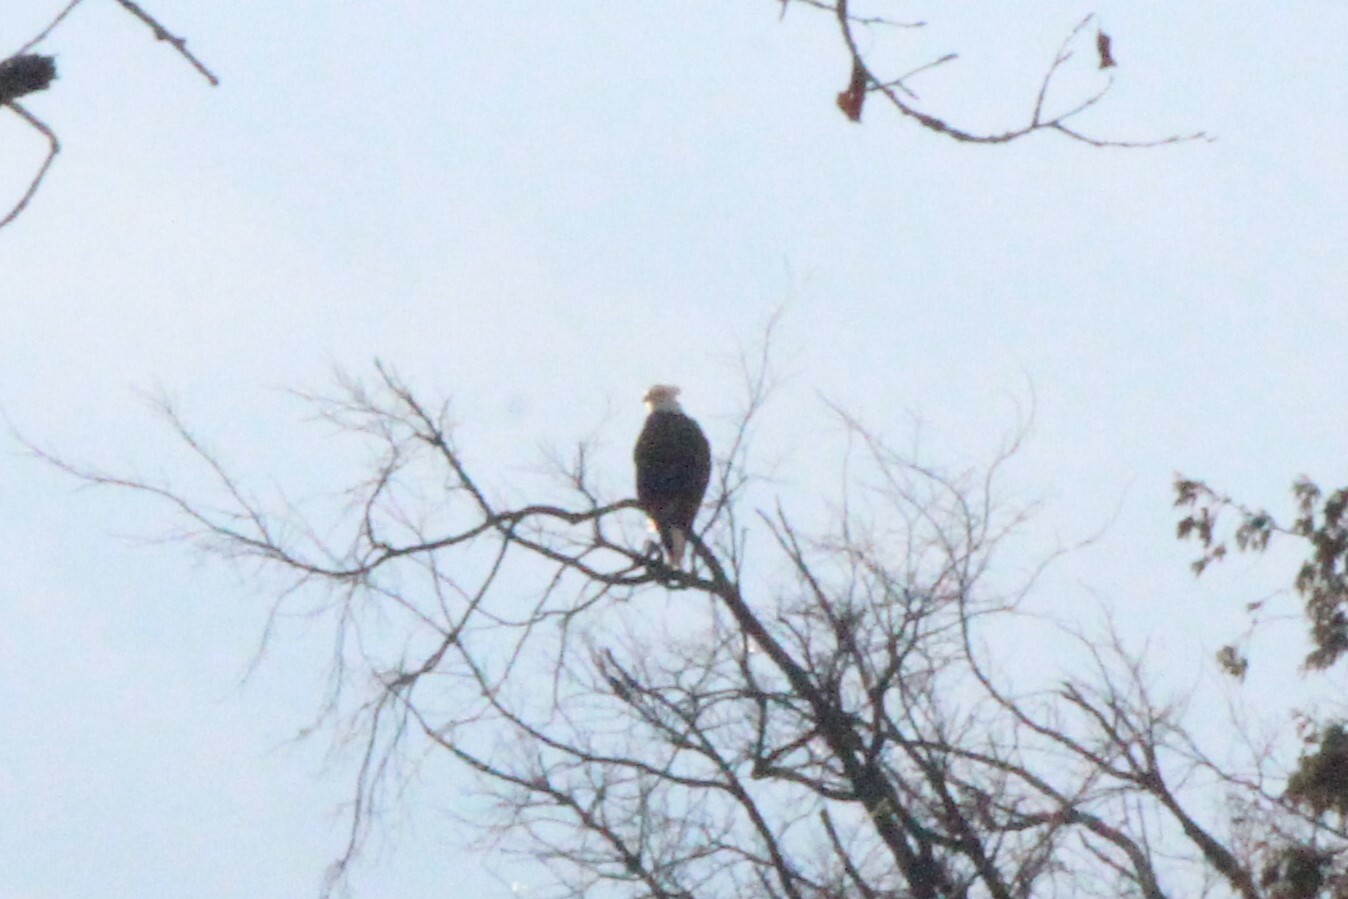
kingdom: Animalia
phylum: Chordata
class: Aves
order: Accipitriformes
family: Accipitridae
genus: Haliaeetus
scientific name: Haliaeetus leucocephalus
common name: Bald eagle
